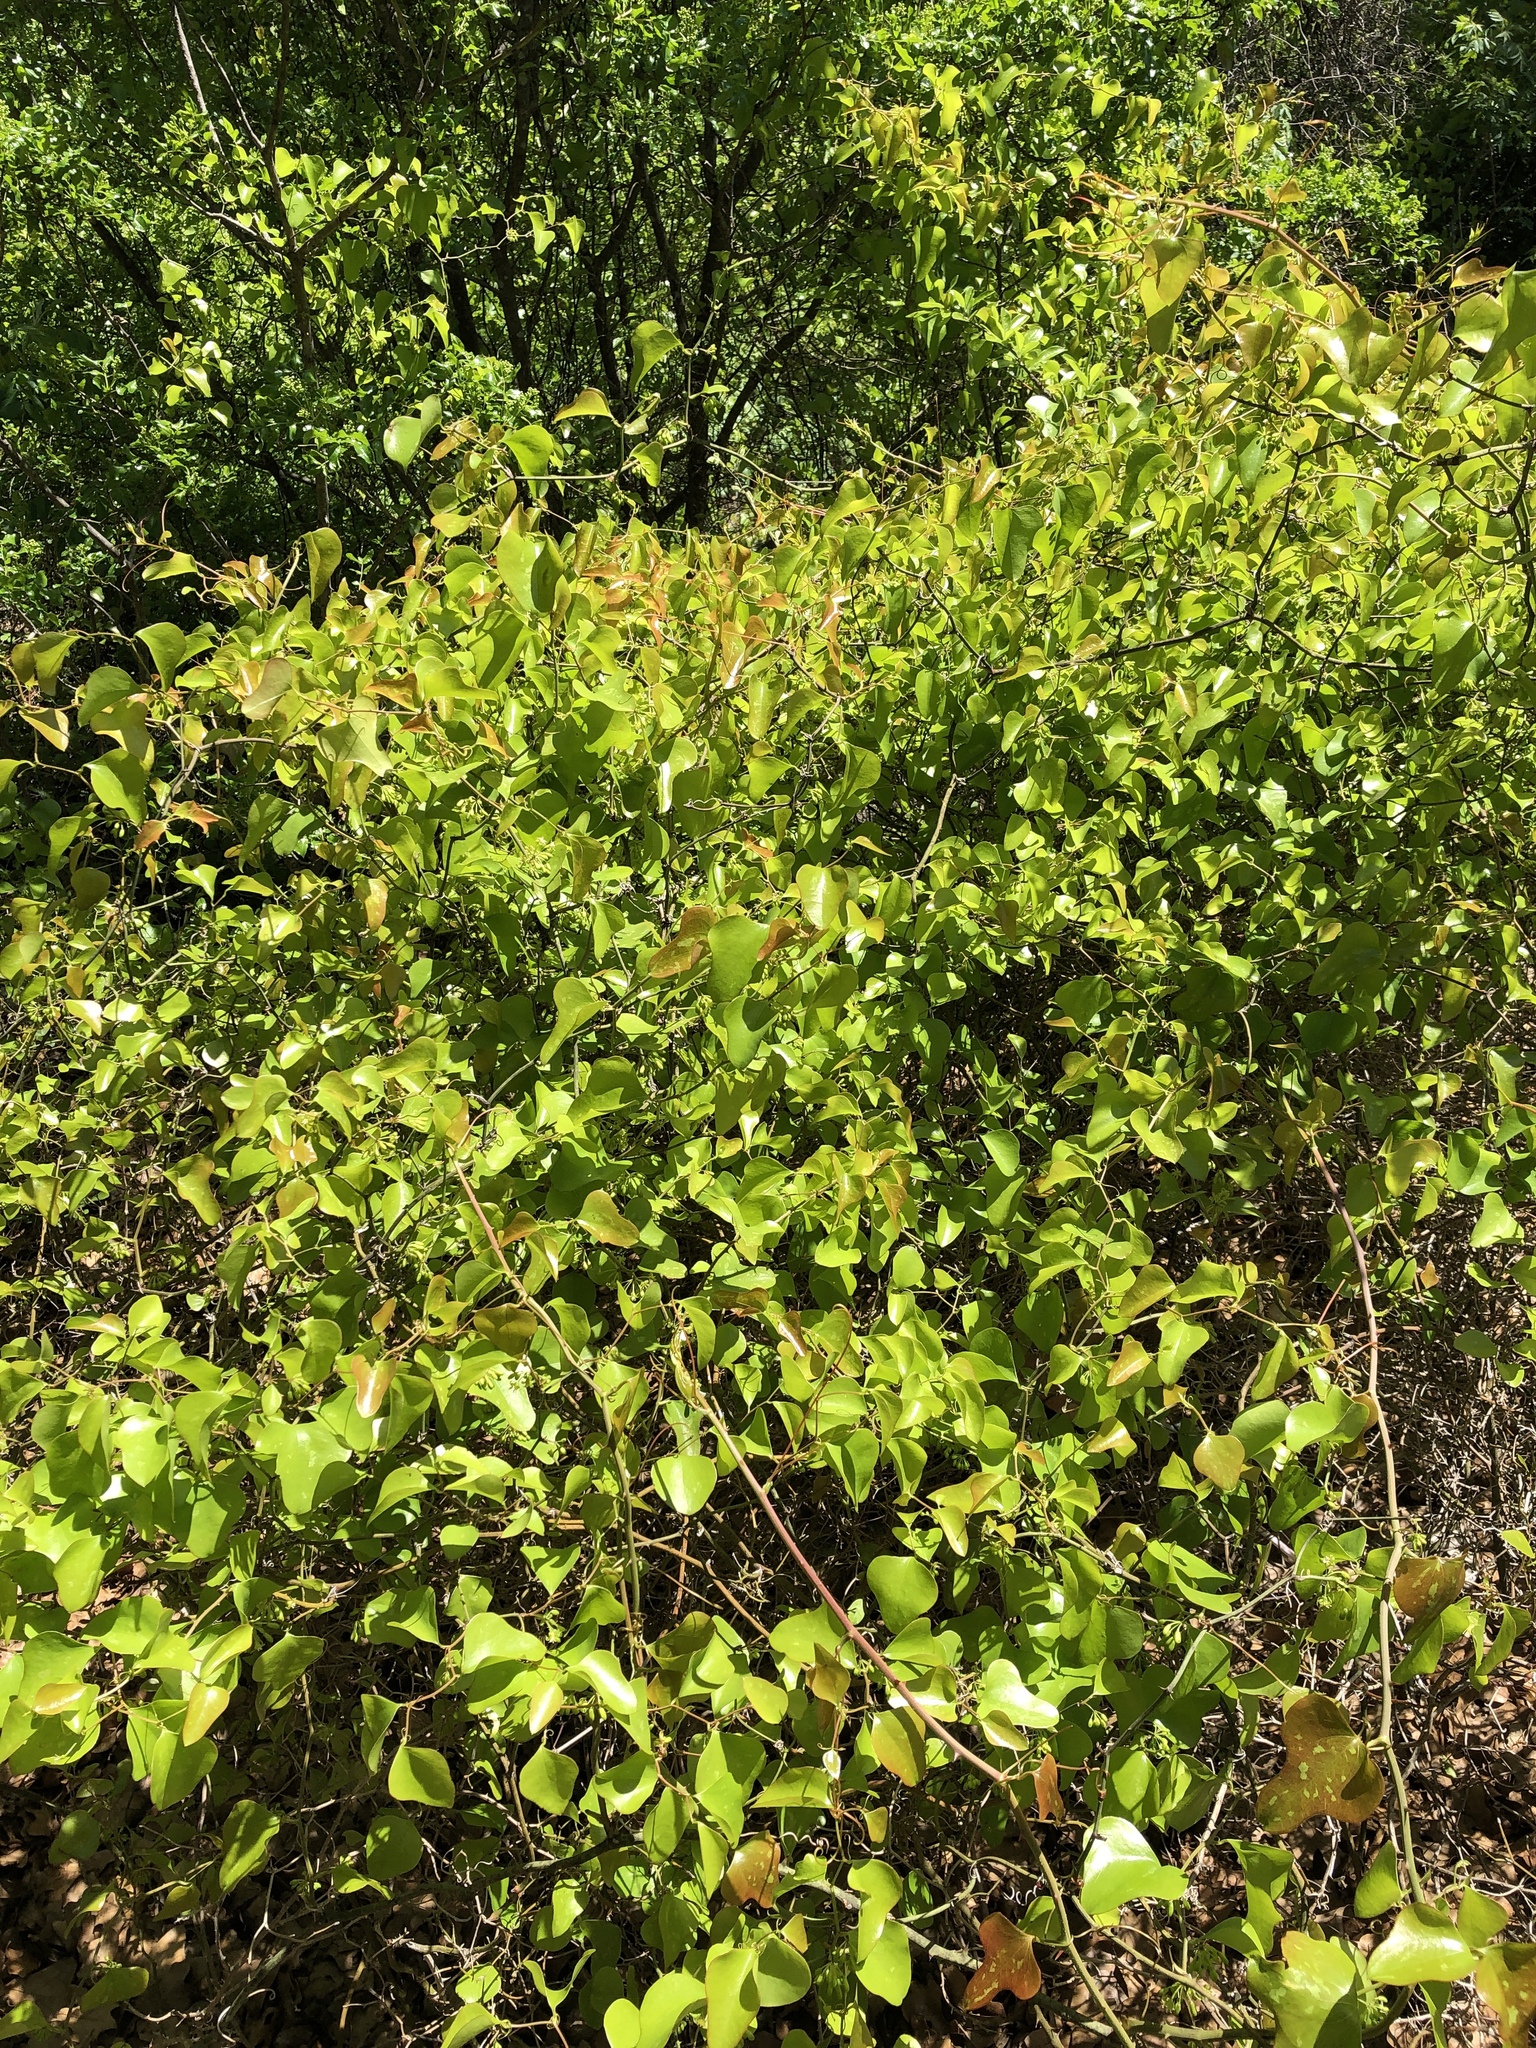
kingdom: Plantae
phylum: Tracheophyta
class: Liliopsida
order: Liliales
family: Smilacaceae
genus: Smilax
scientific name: Smilax bona-nox
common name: Catbrier
